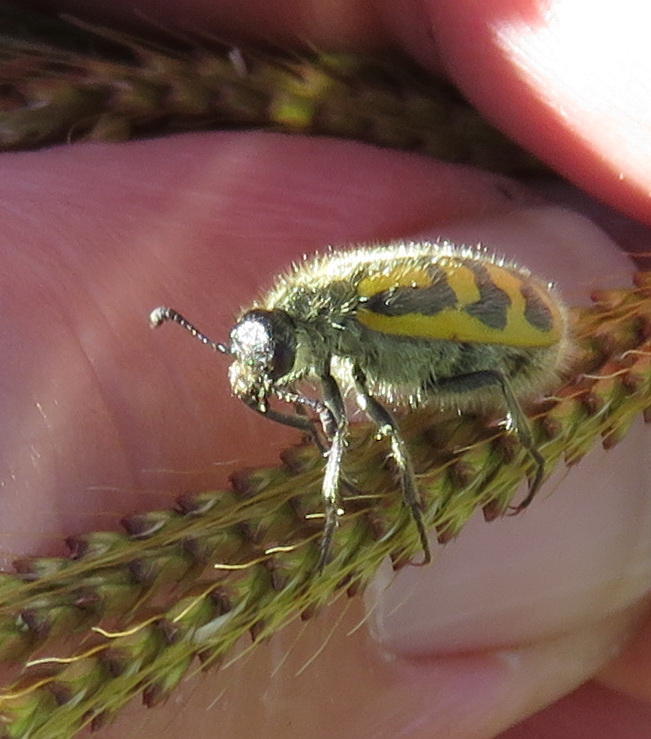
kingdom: Animalia
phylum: Arthropoda
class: Insecta
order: Coleoptera
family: Meloidae
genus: Hycleus
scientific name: Hycleus villosus
